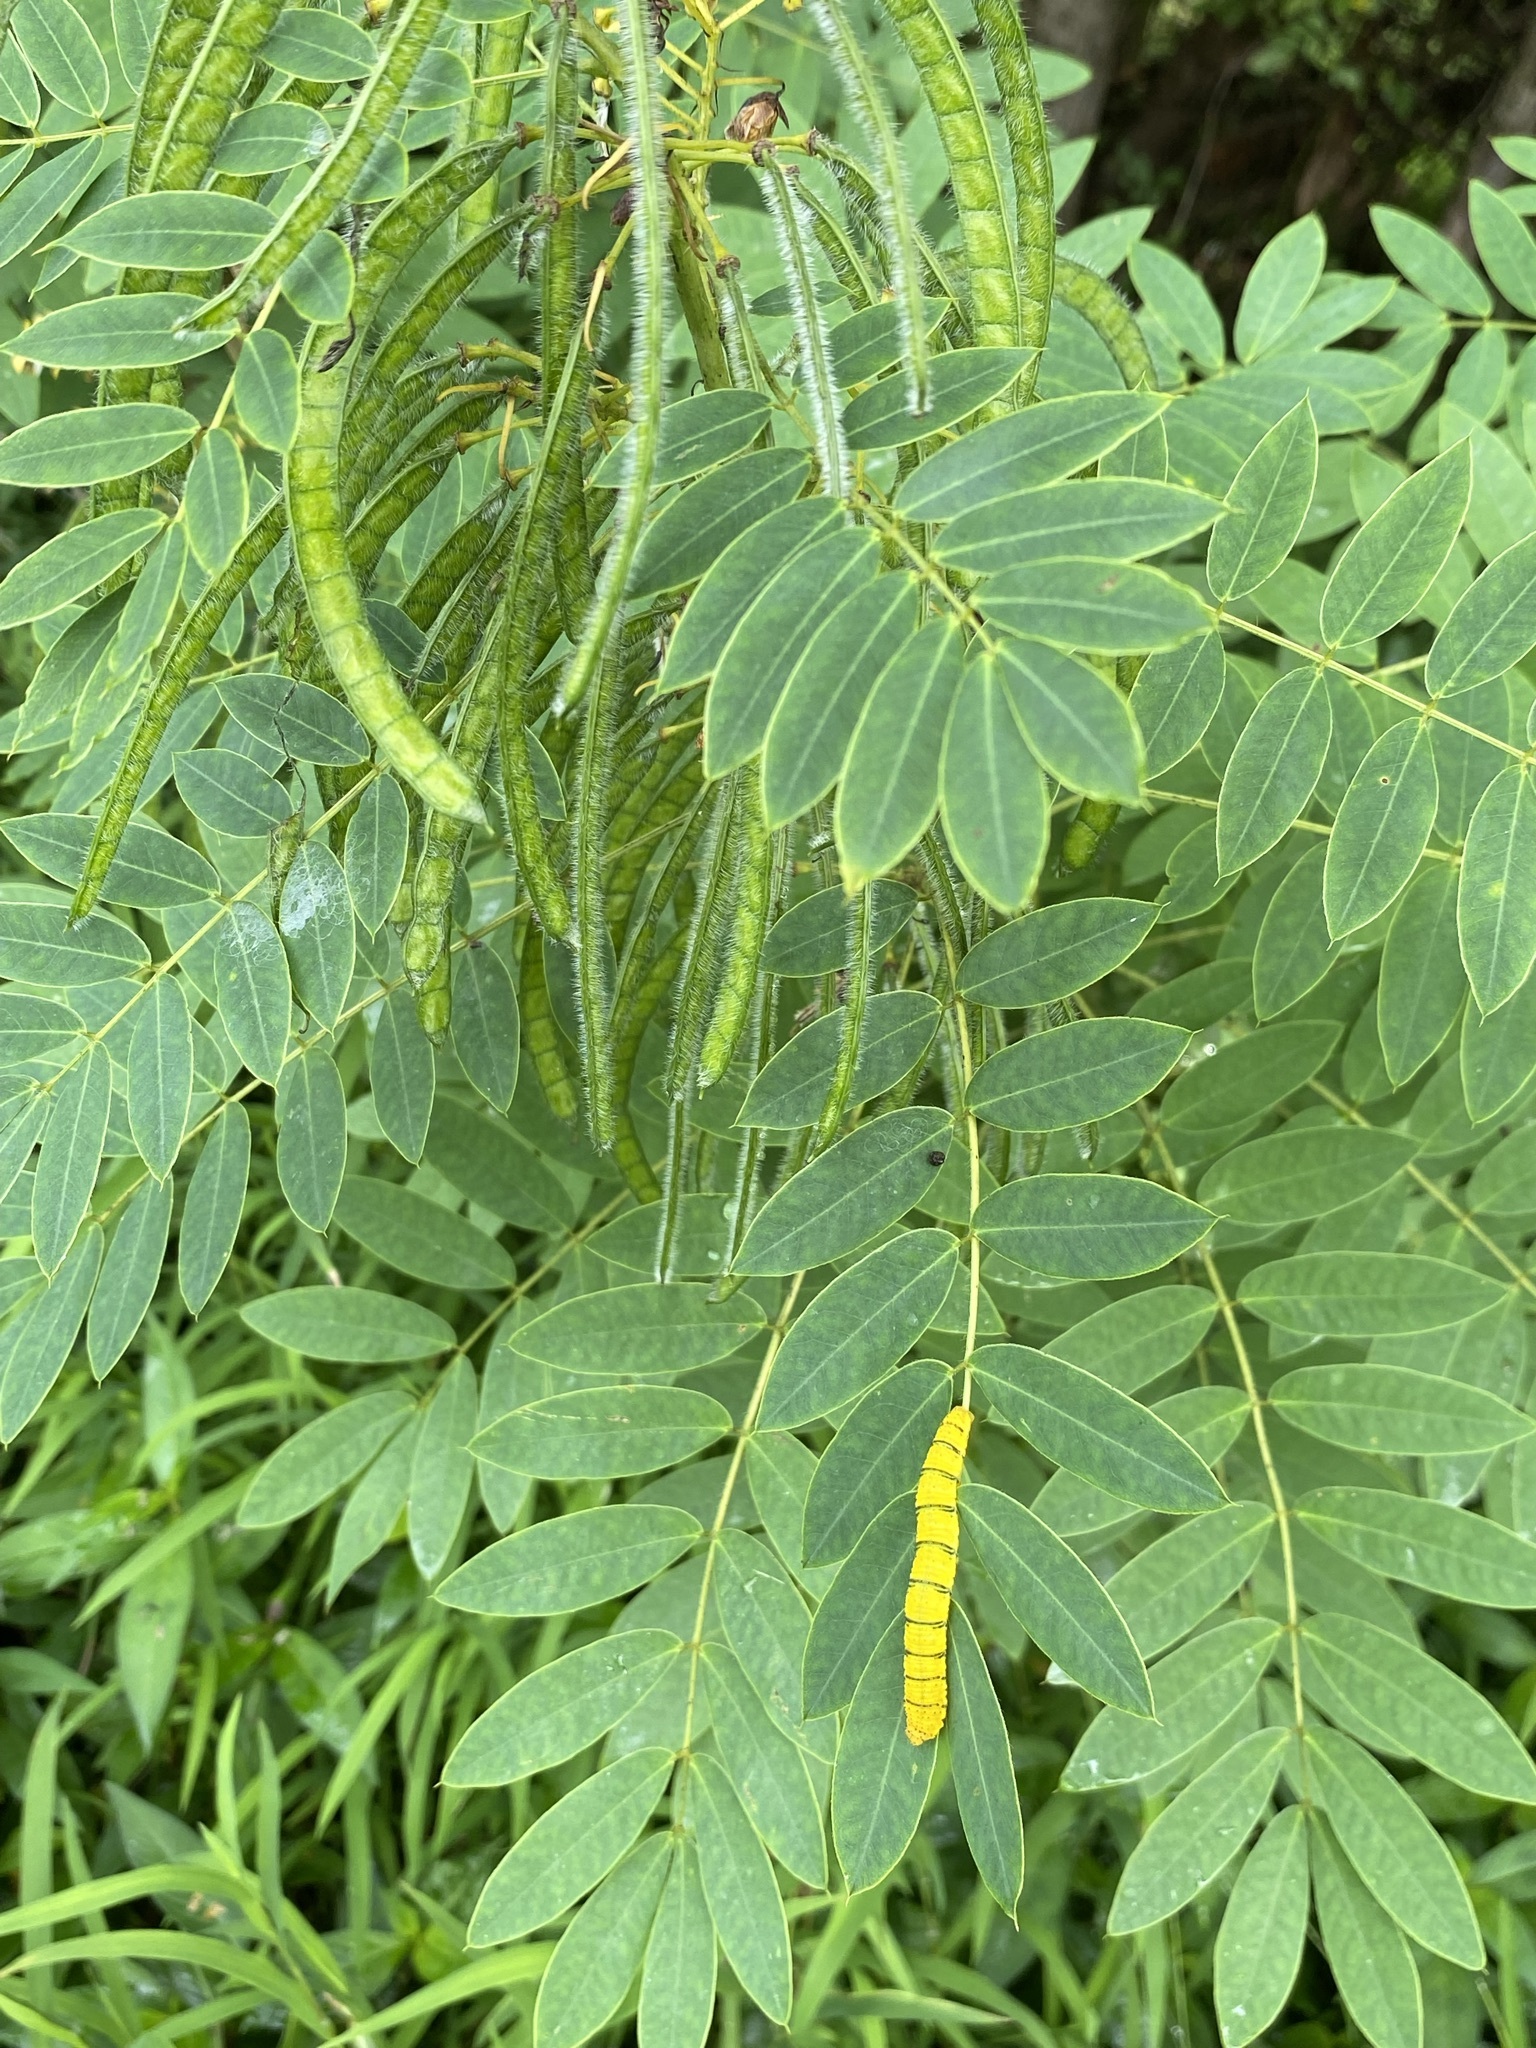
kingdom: Animalia
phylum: Arthropoda
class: Insecta
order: Lepidoptera
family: Pieridae
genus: Phoebis
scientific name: Phoebis sennae
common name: Cloudless sulphur
